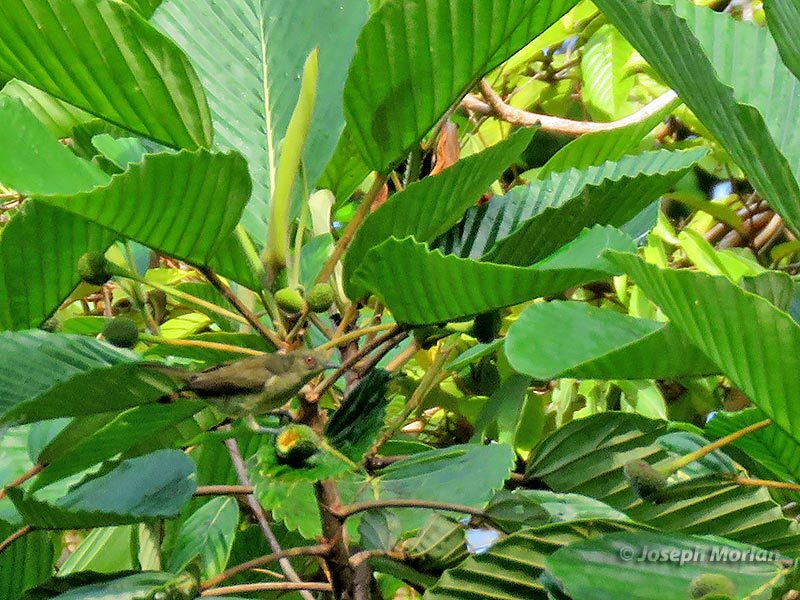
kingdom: Animalia
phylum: Chordata
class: Aves
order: Passeriformes
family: Thraupidae
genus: Dacnis
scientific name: Dacnis flaviventer
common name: Yellow-bellied dacnis
